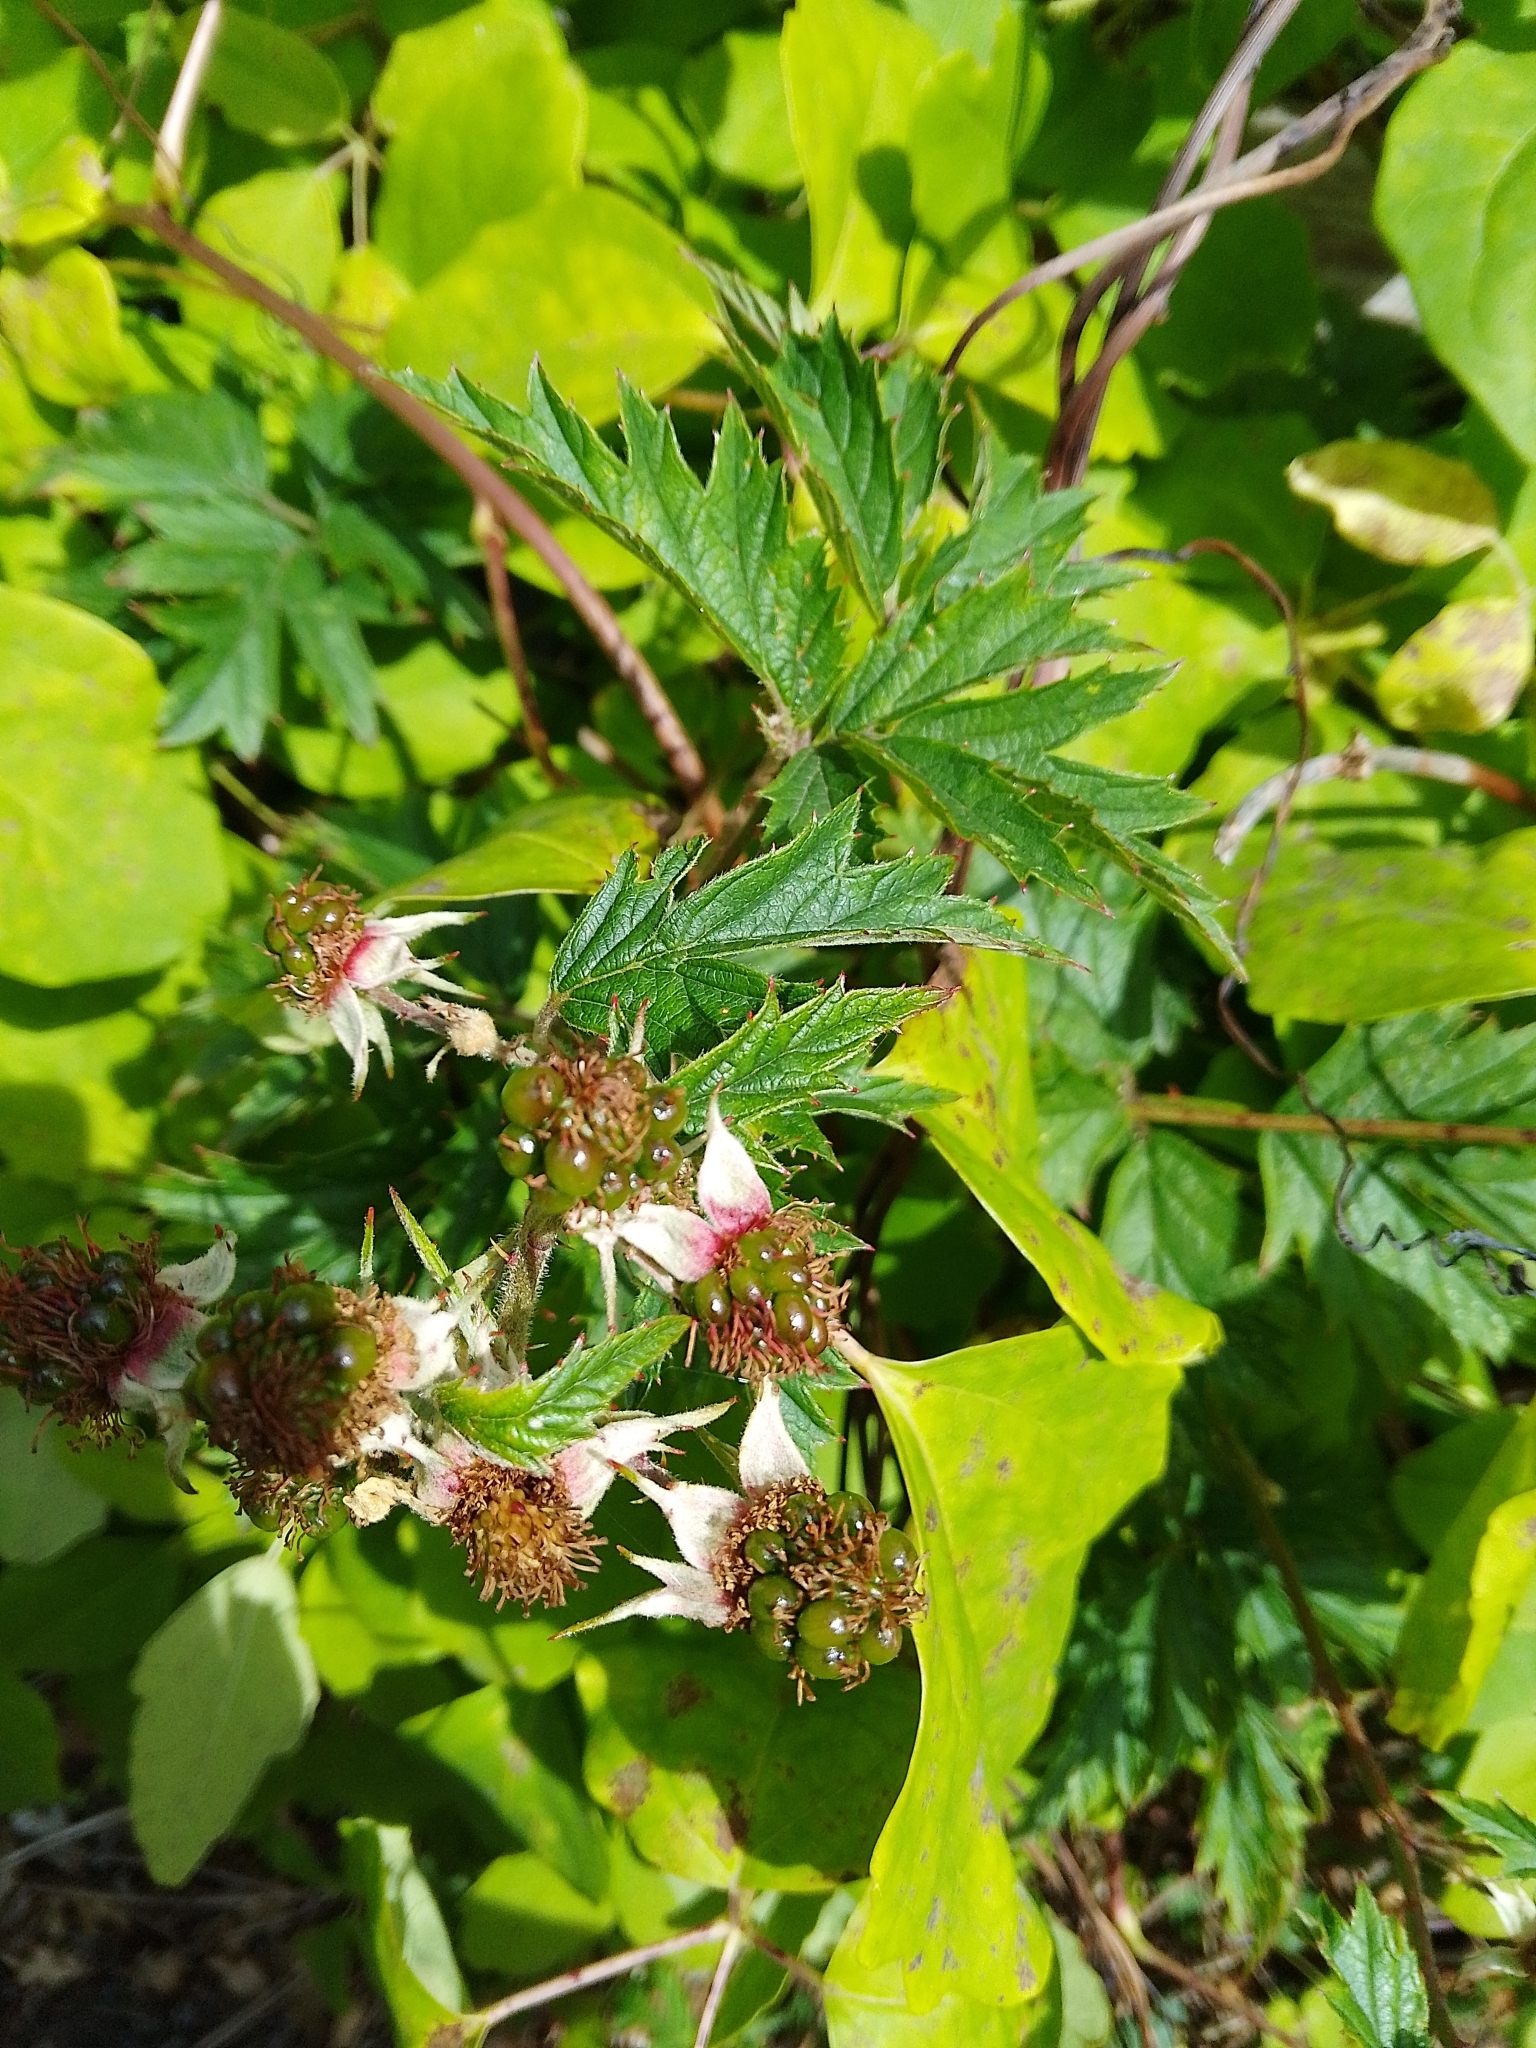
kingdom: Plantae
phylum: Tracheophyta
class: Magnoliopsida
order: Rosales
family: Rosaceae
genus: Rubus
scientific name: Rubus laciniatus
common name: Evergreen blackberry
